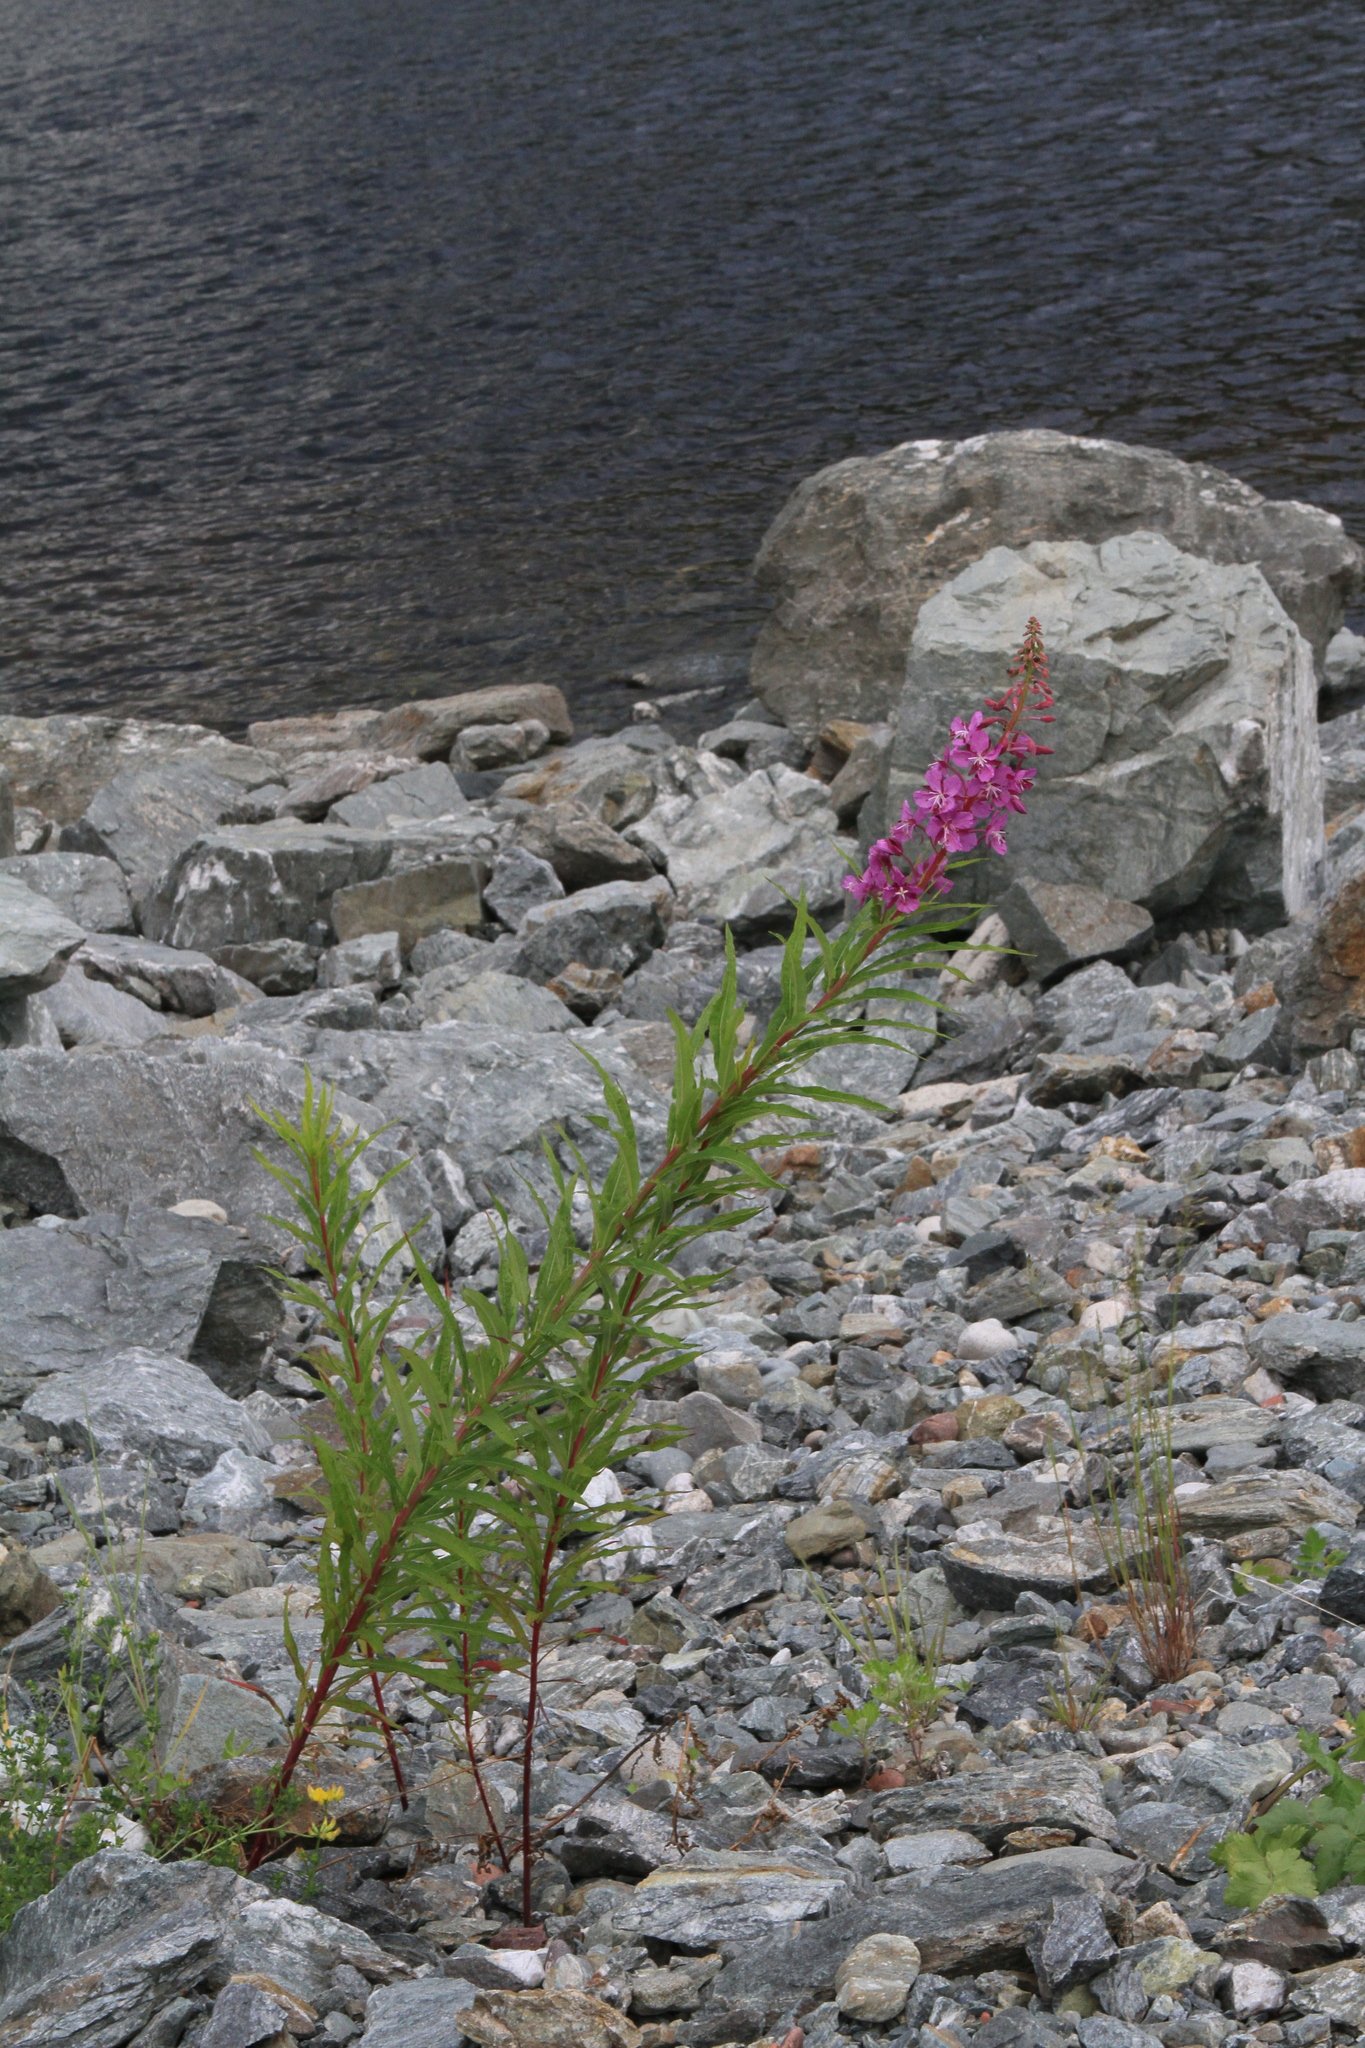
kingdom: Plantae
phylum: Tracheophyta
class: Magnoliopsida
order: Myrtales
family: Onagraceae
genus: Chamaenerion
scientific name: Chamaenerion angustifolium
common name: Fireweed
